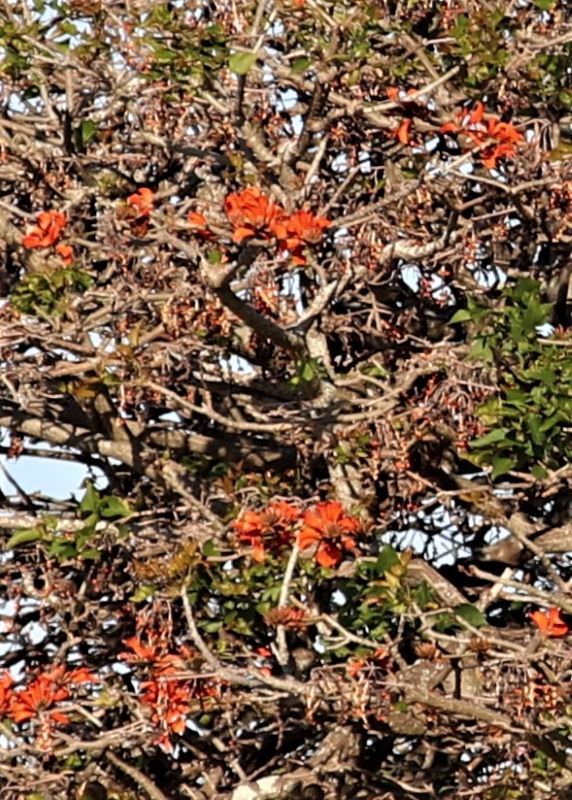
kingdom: Plantae
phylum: Tracheophyta
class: Magnoliopsida
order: Fabales
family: Fabaceae
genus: Erythrina
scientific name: Erythrina caffra
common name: Coast coral tree
